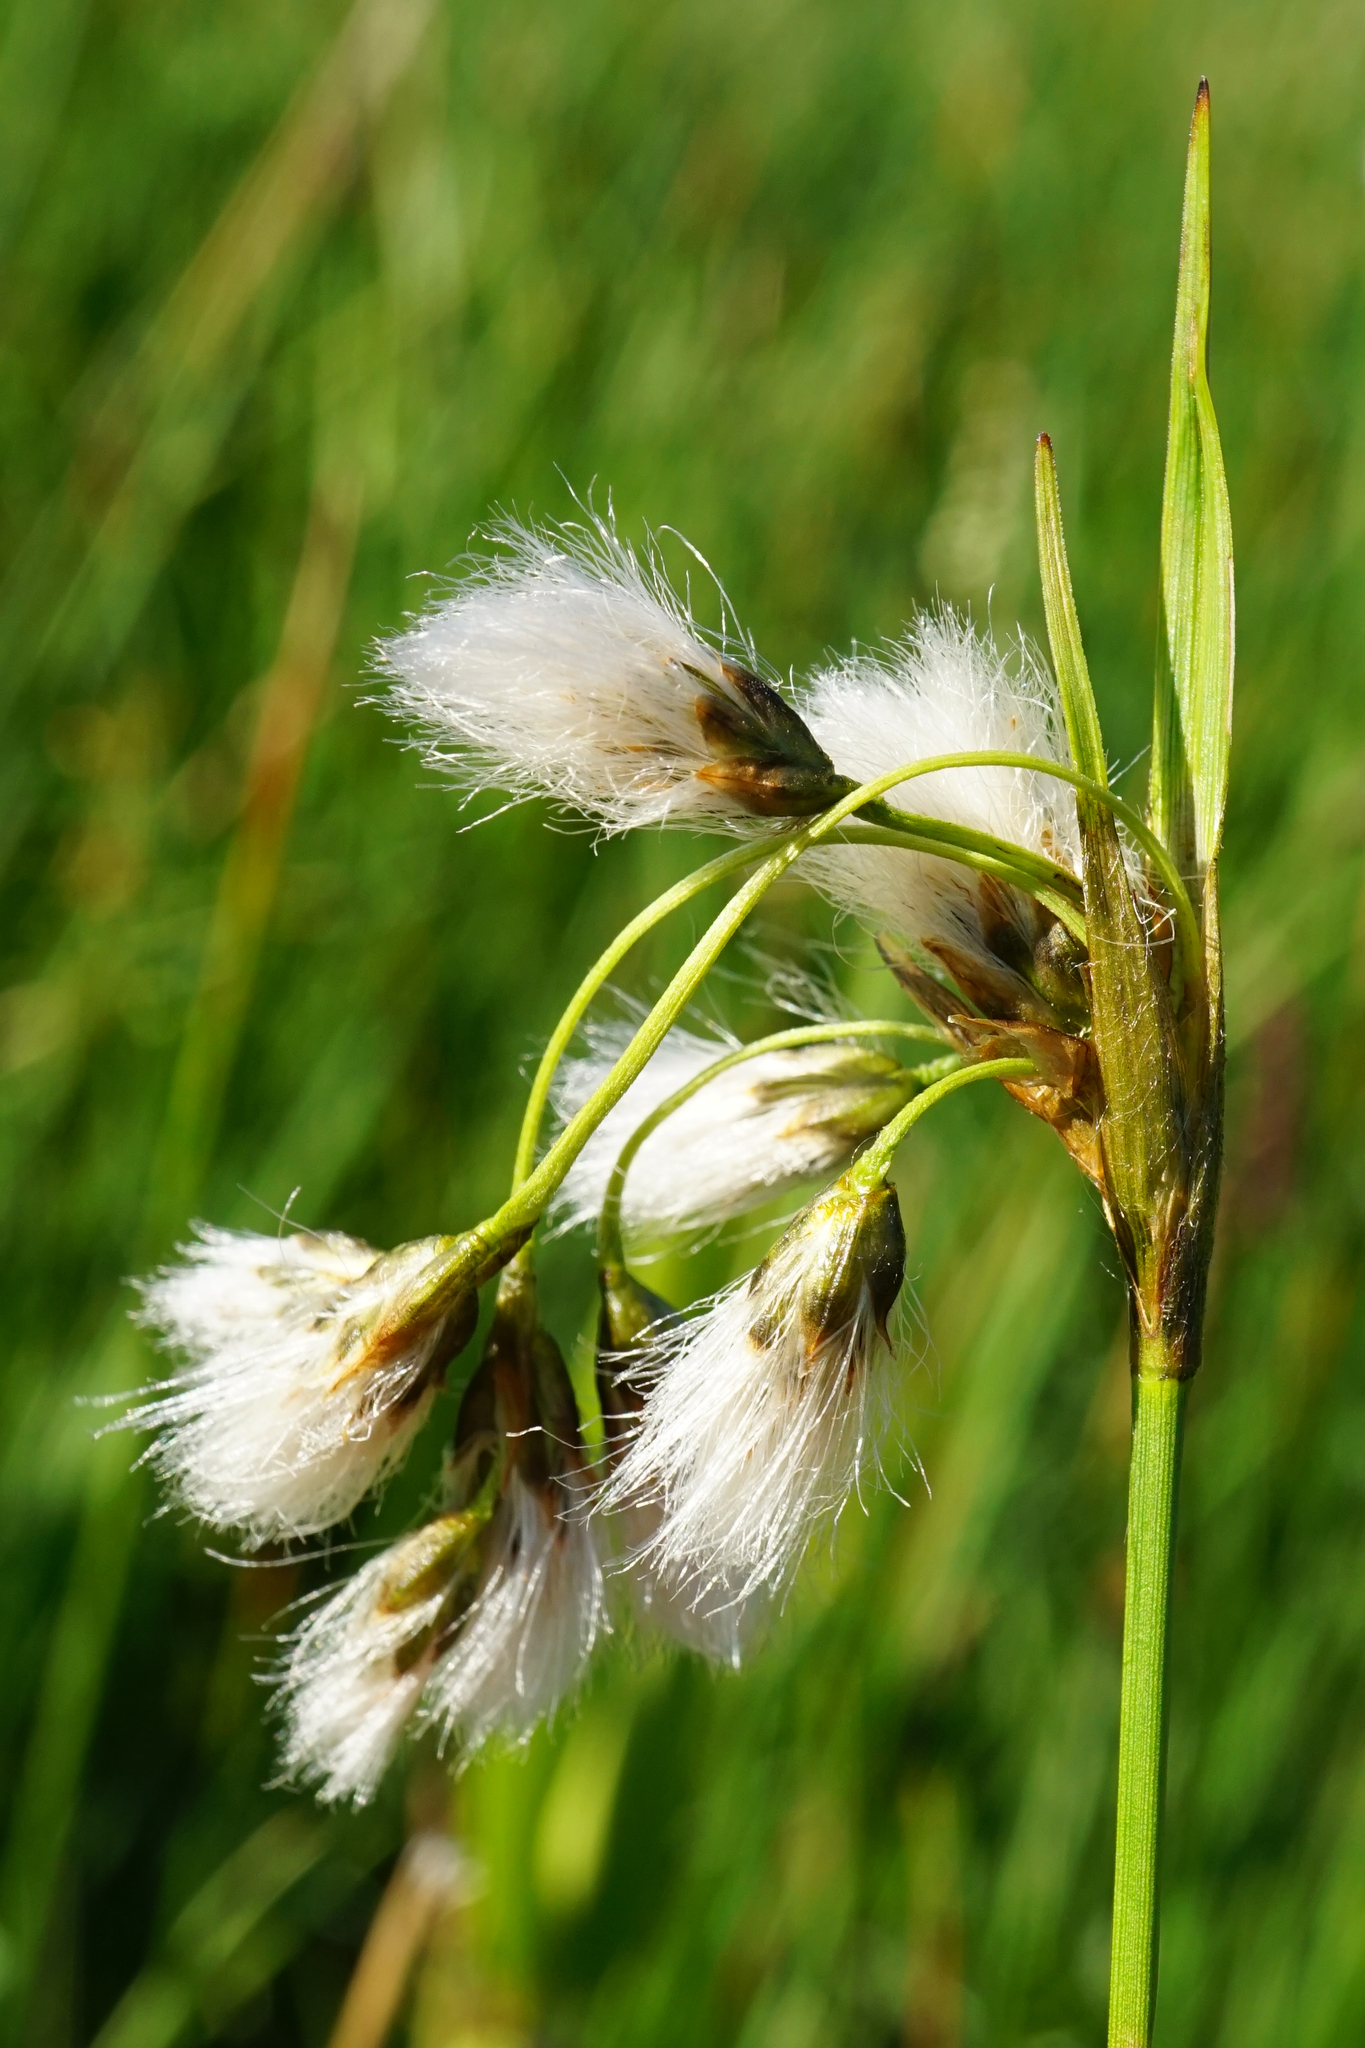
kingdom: Plantae
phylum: Tracheophyta
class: Liliopsida
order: Poales
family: Cyperaceae
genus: Eriophorum
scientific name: Eriophorum latifolium
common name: Broad-leaved cottongrass
